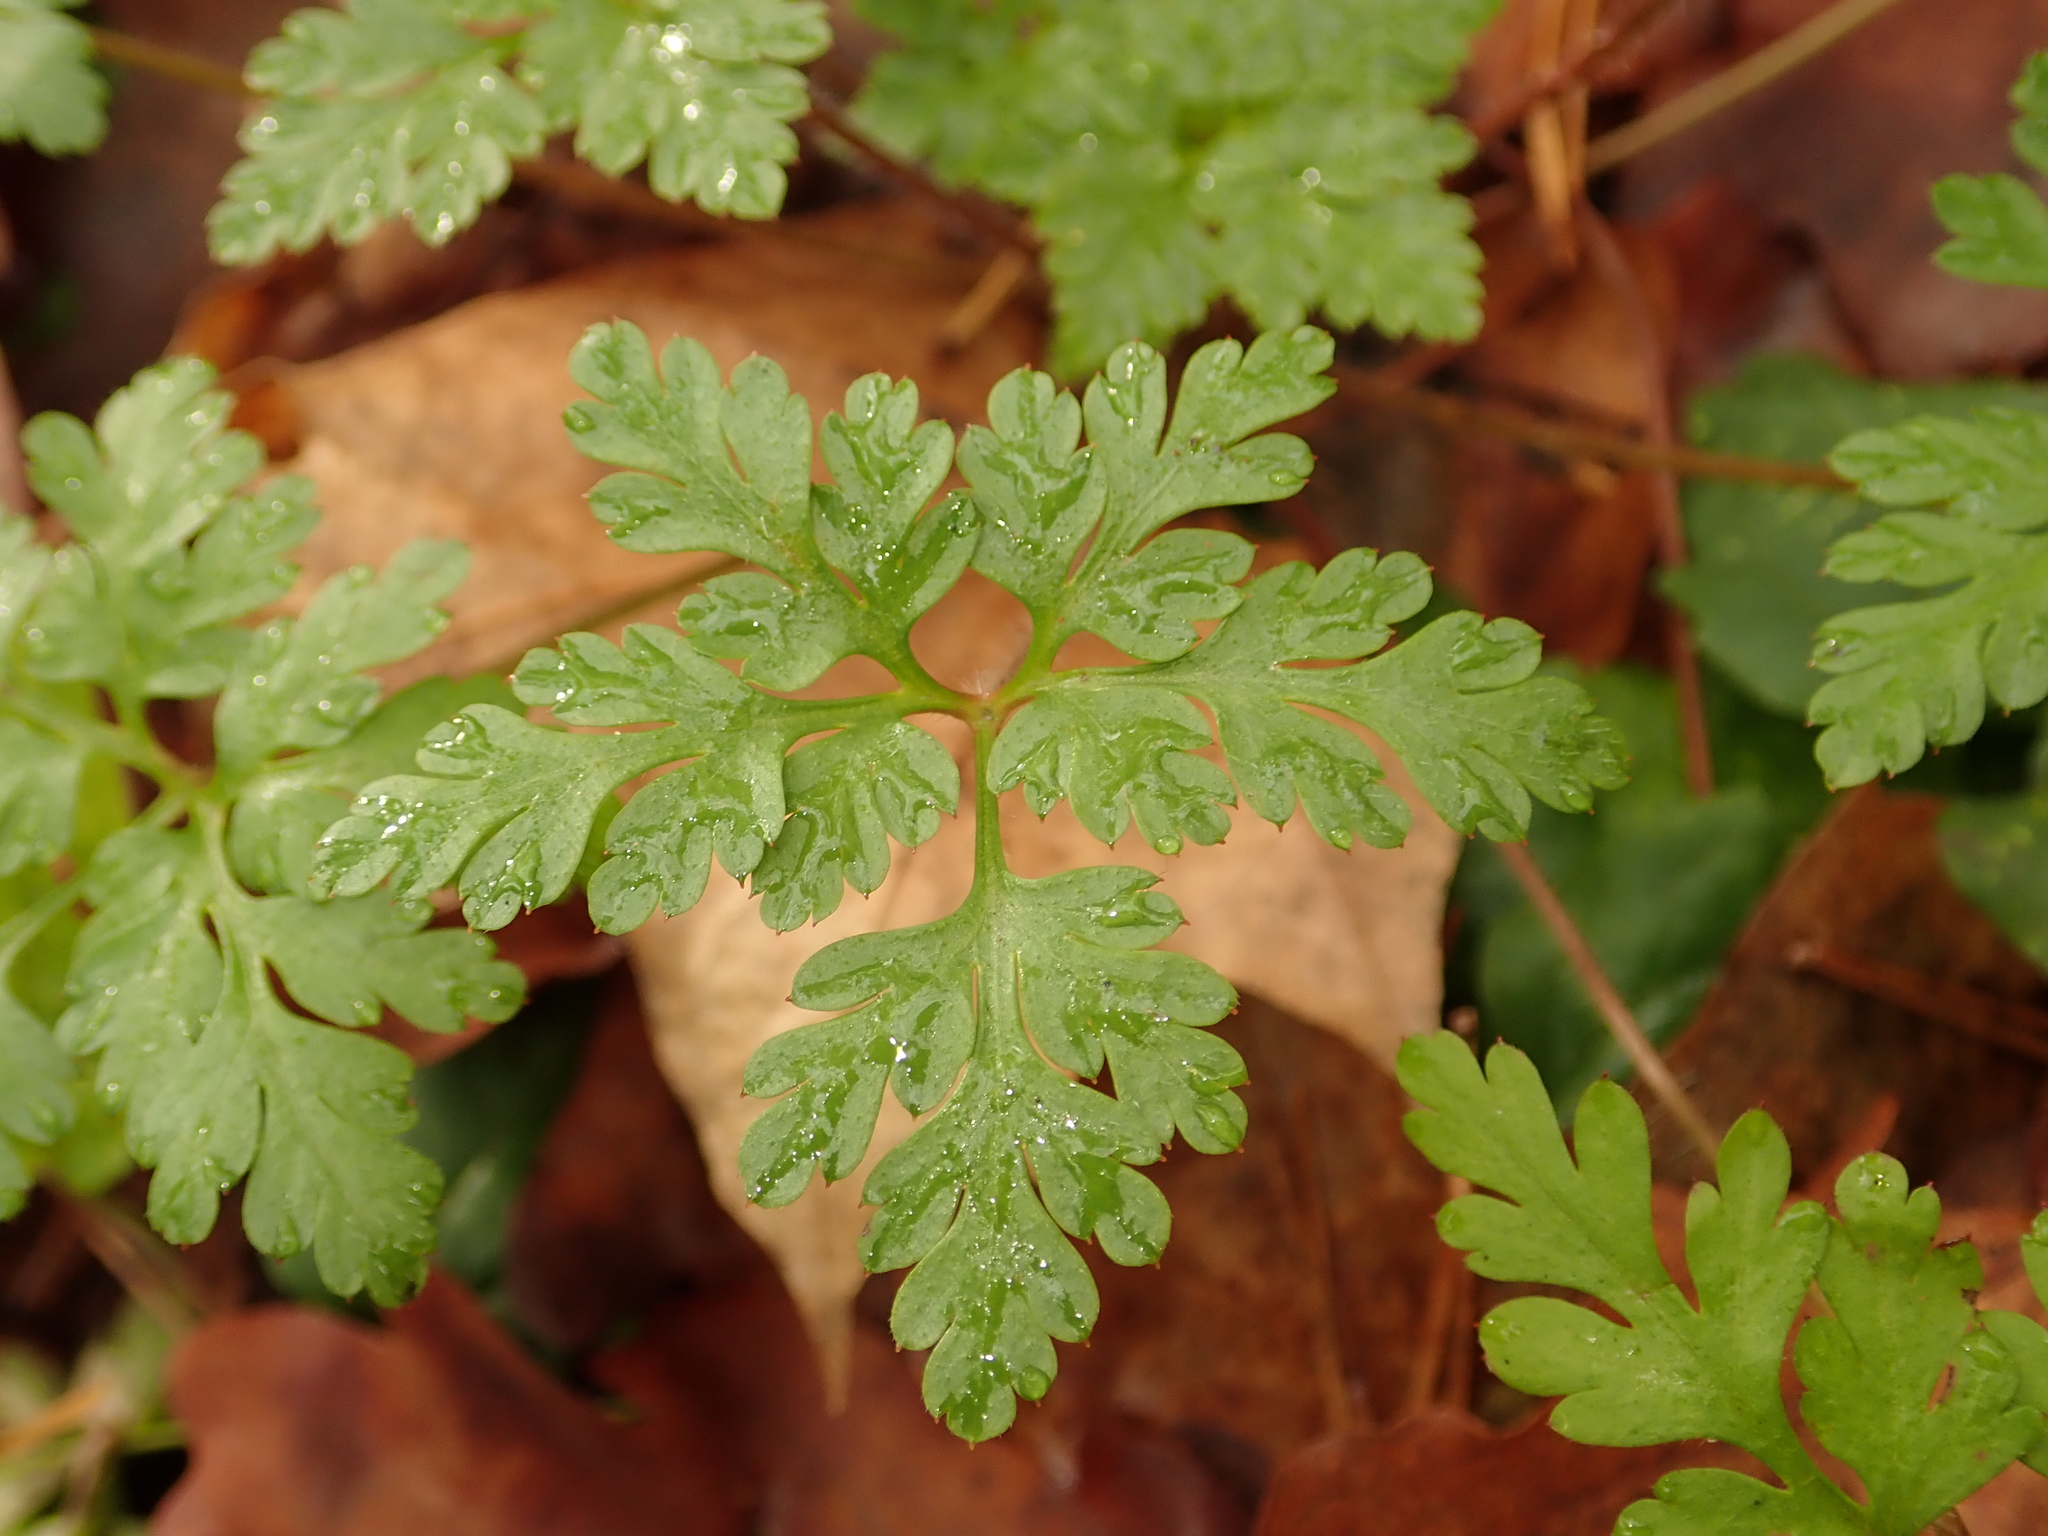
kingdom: Plantae
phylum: Tracheophyta
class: Magnoliopsida
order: Geraniales
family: Geraniaceae
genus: Geranium
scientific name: Geranium robertianum
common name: Herb-robert
